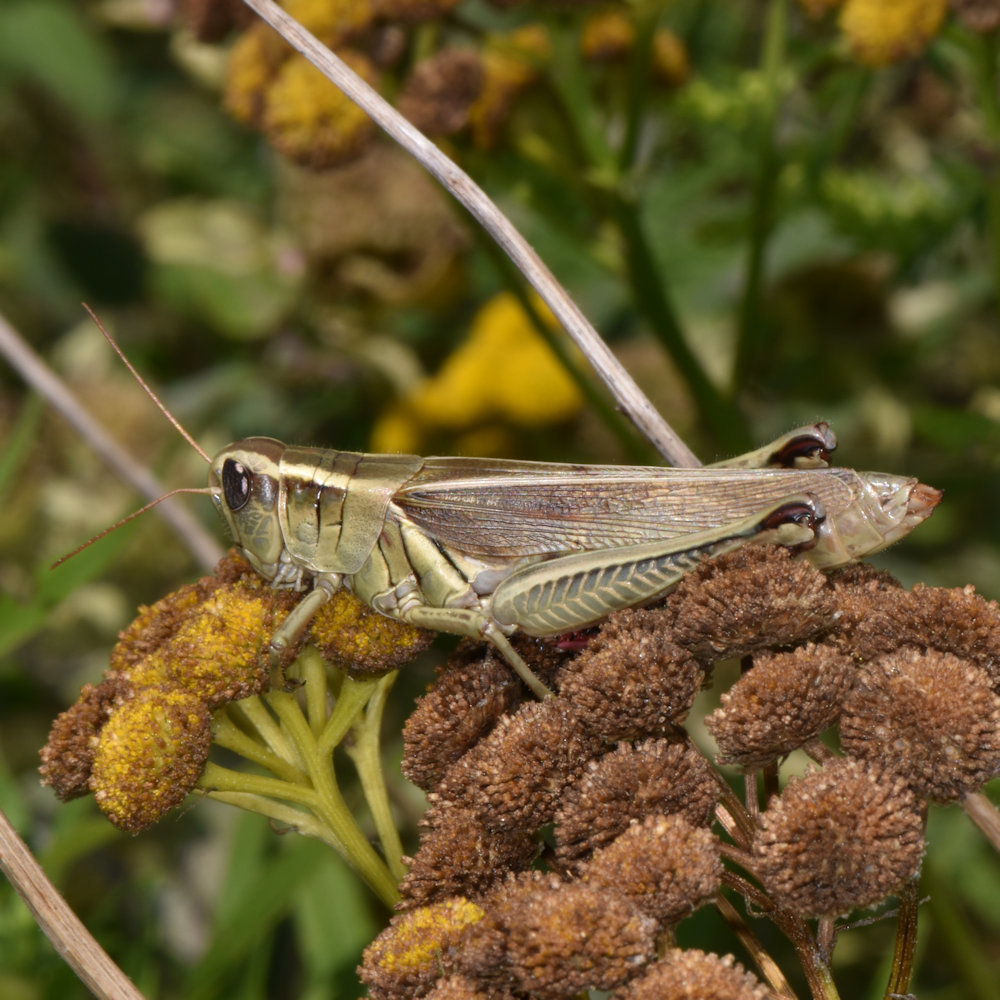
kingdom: Animalia
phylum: Arthropoda
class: Insecta
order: Orthoptera
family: Acrididae
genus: Melanoplus
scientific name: Melanoplus bivittatus
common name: Two-striped grasshopper
